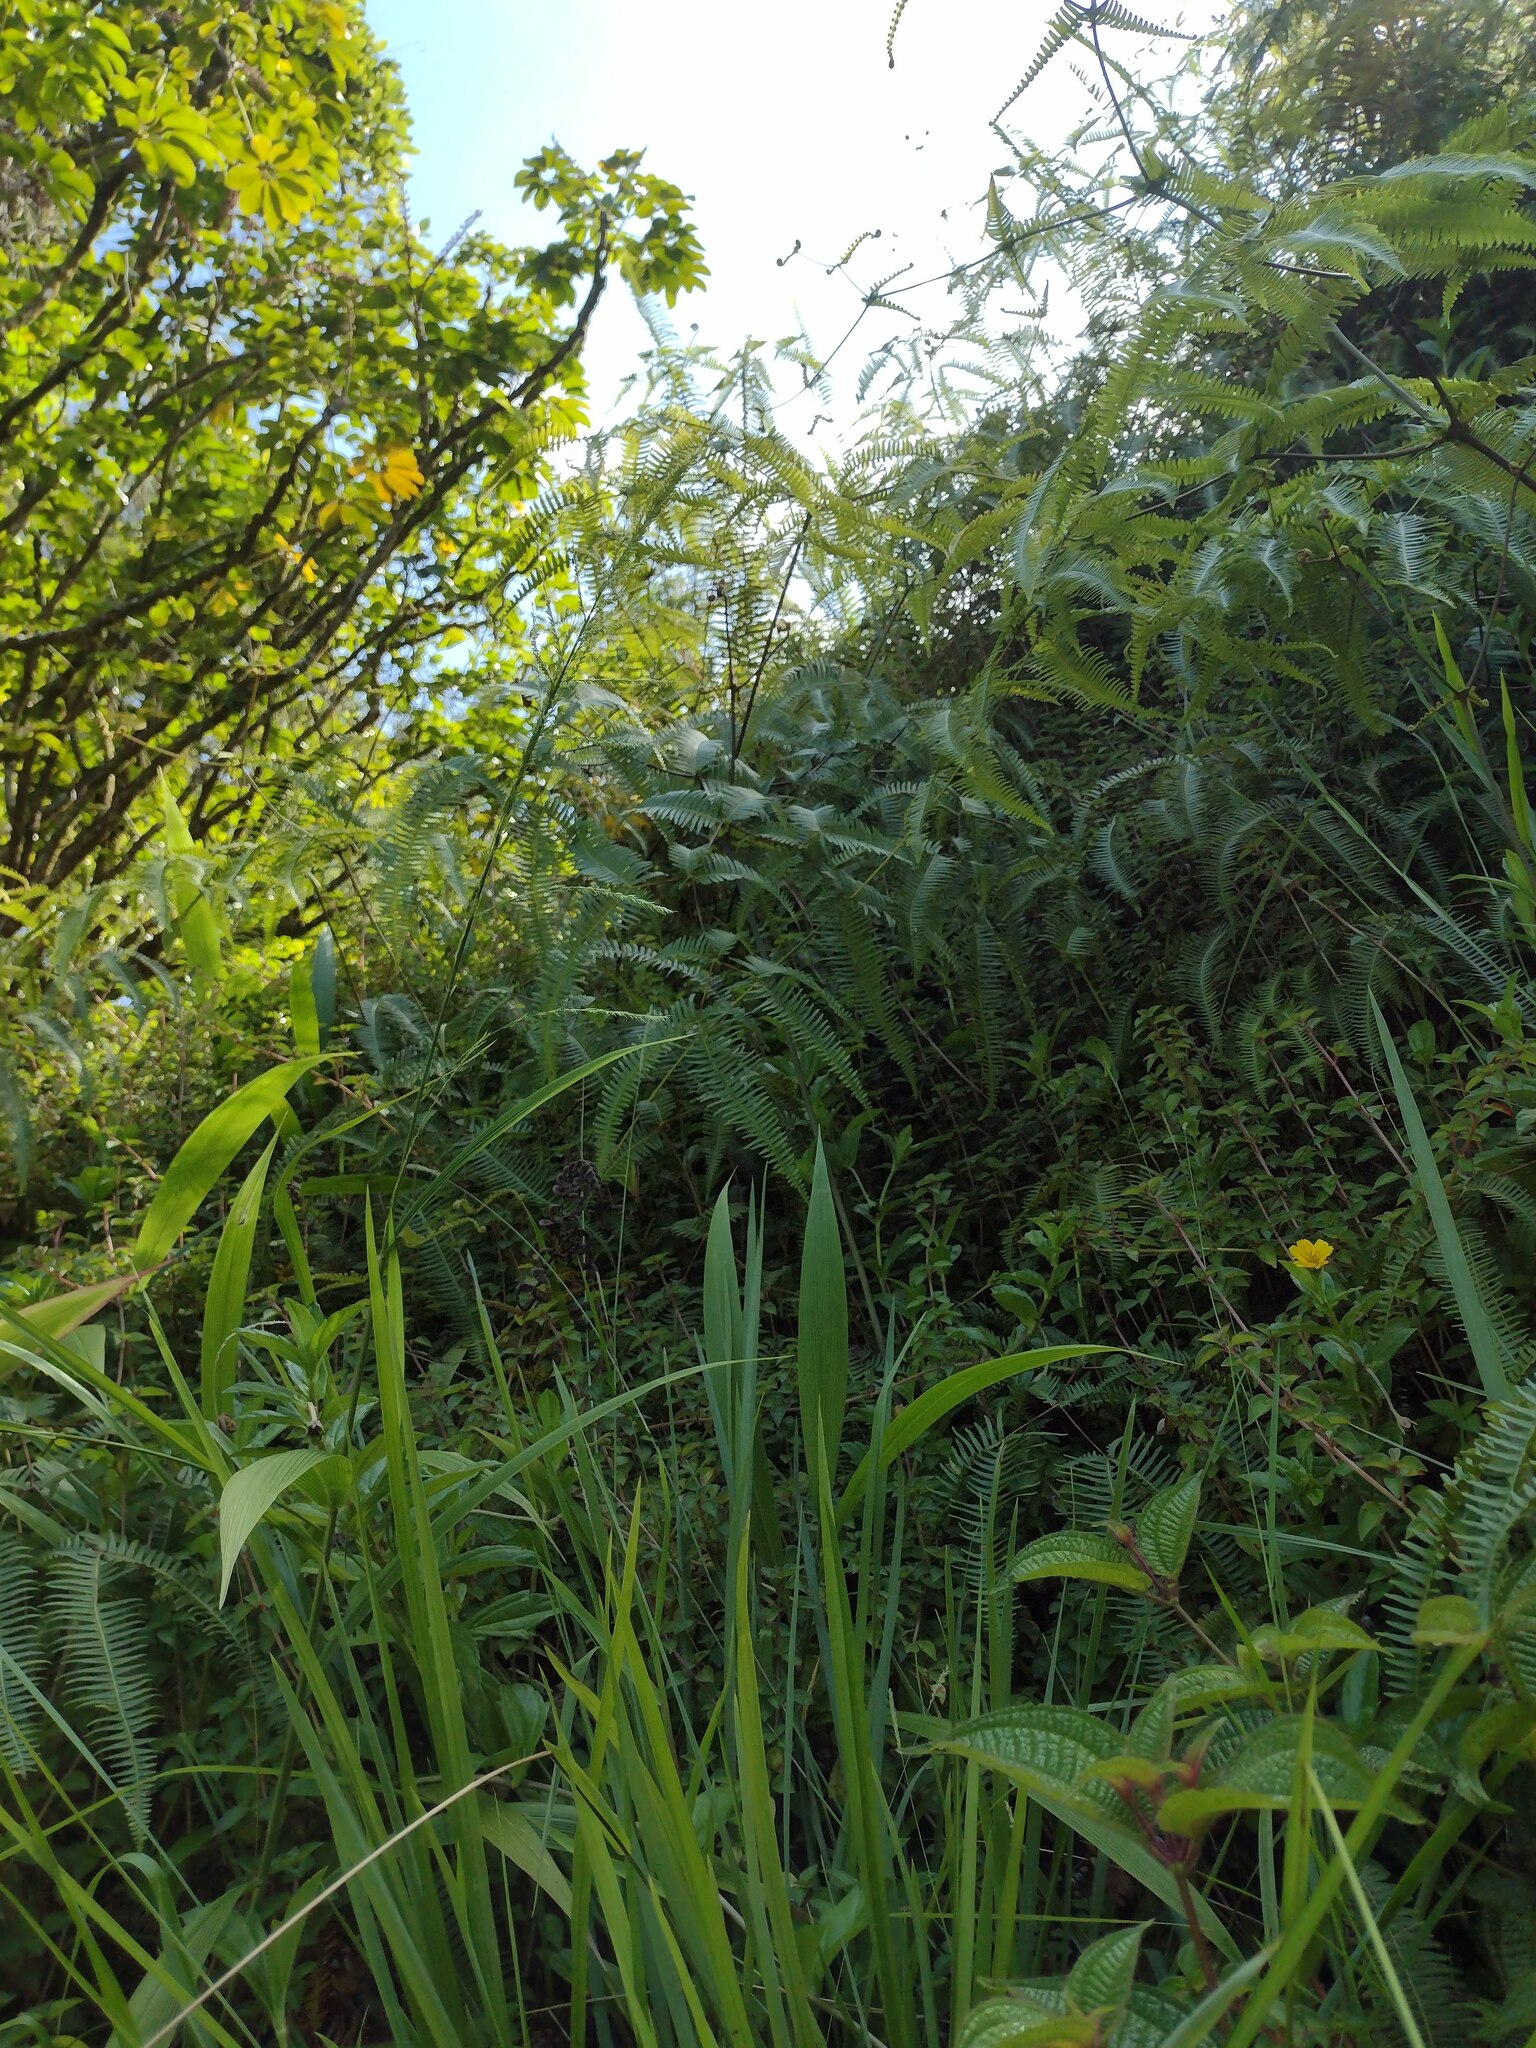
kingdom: Plantae
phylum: Tracheophyta
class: Polypodiopsida
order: Gleicheniales
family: Gleicheniaceae
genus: Dicranopteris
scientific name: Dicranopteris linearis
